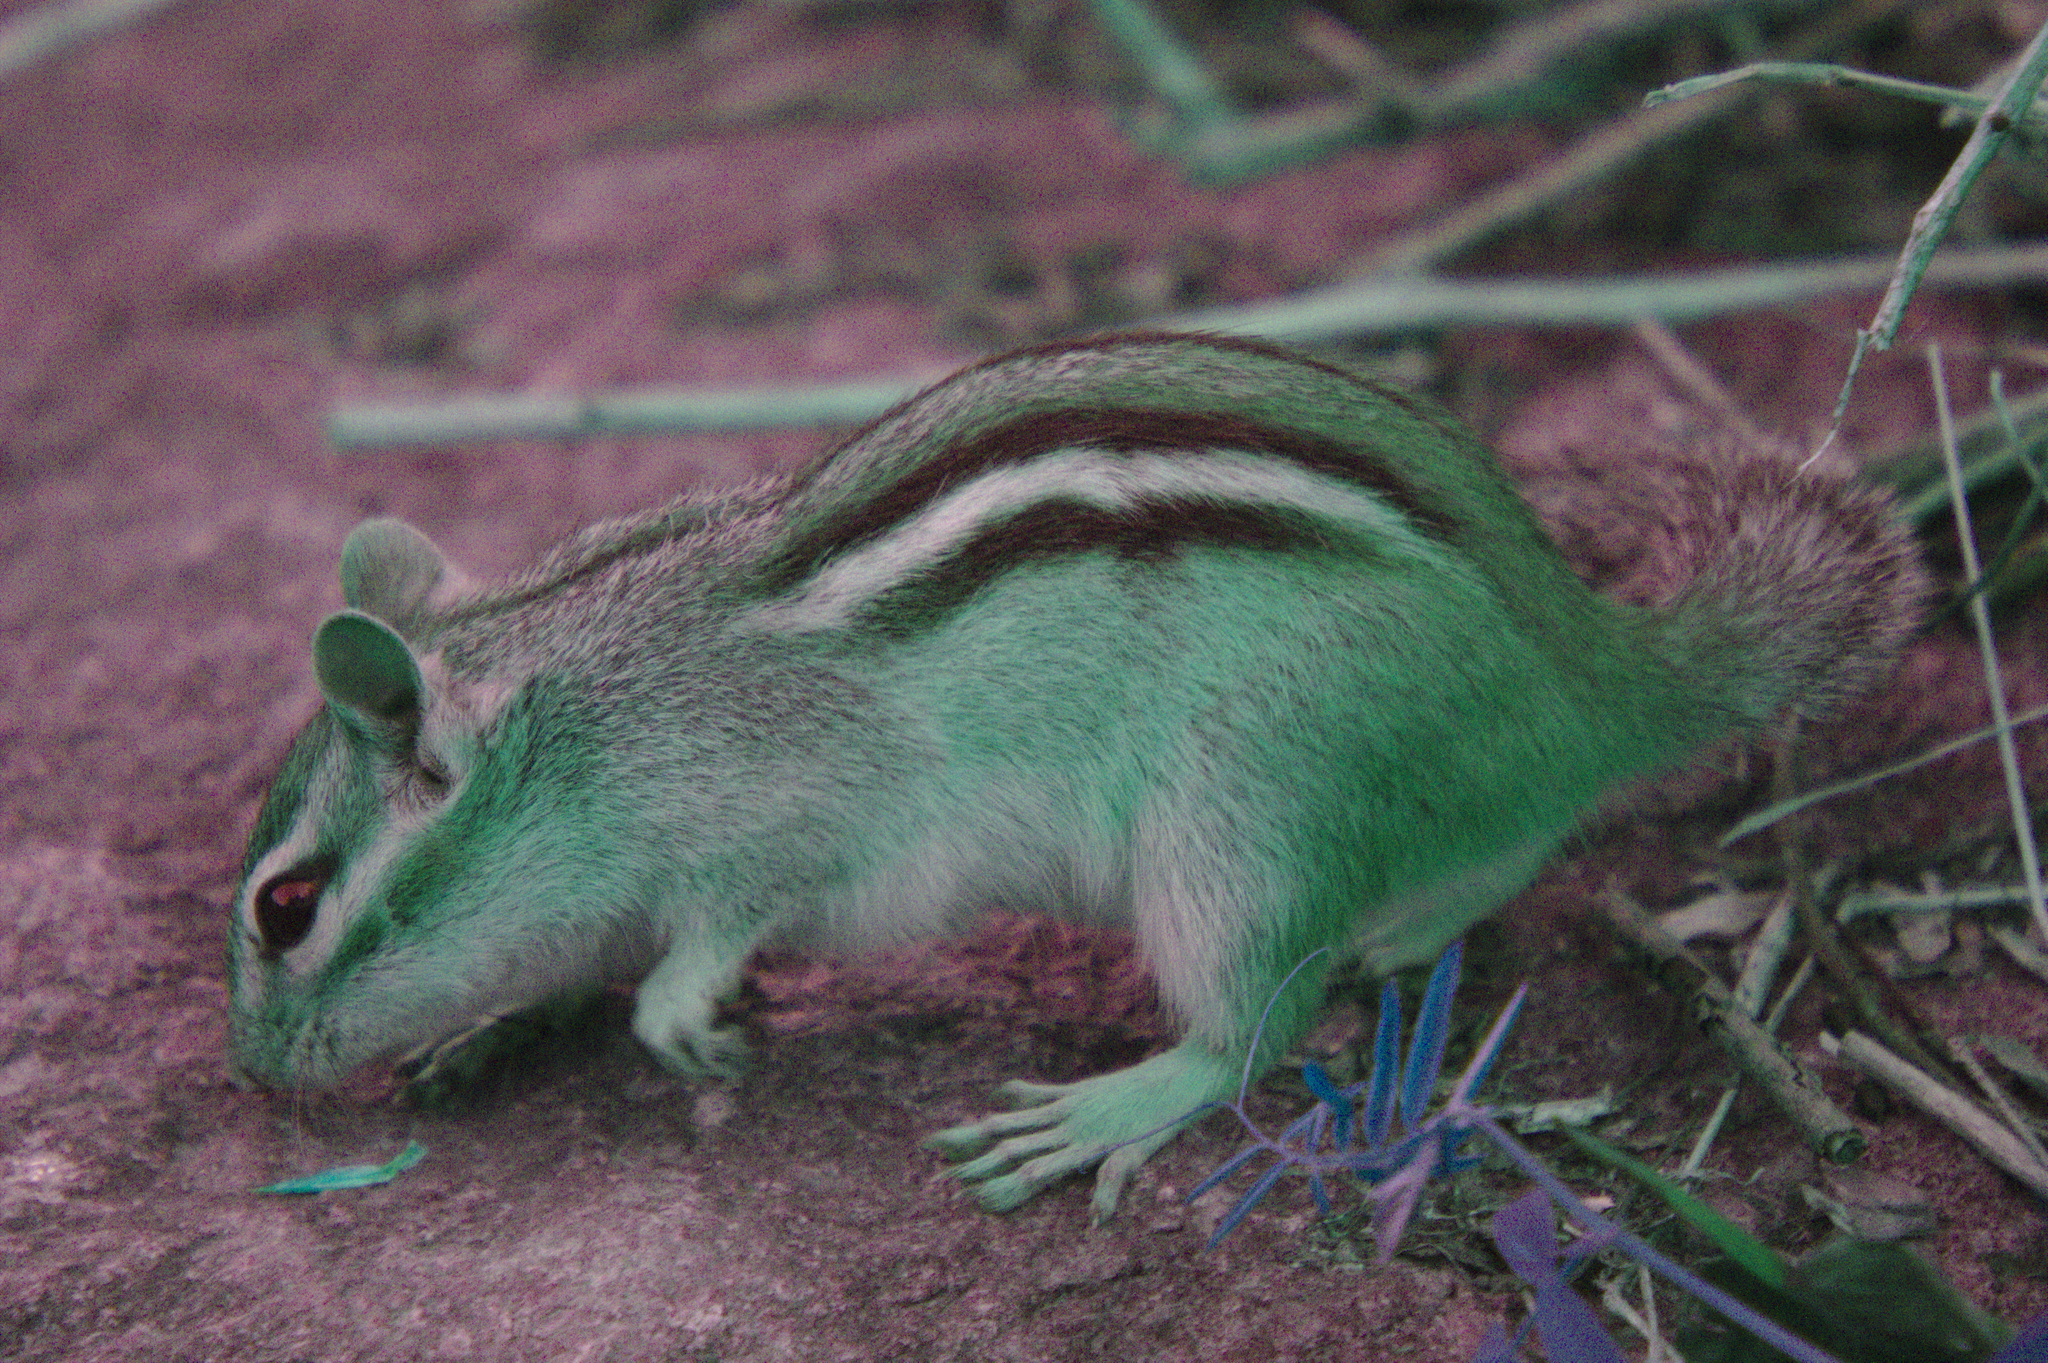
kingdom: Animalia
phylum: Chordata
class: Mammalia
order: Rodentia
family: Sciuridae
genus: Tamias
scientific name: Tamias striatus
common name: Eastern chipmunk
